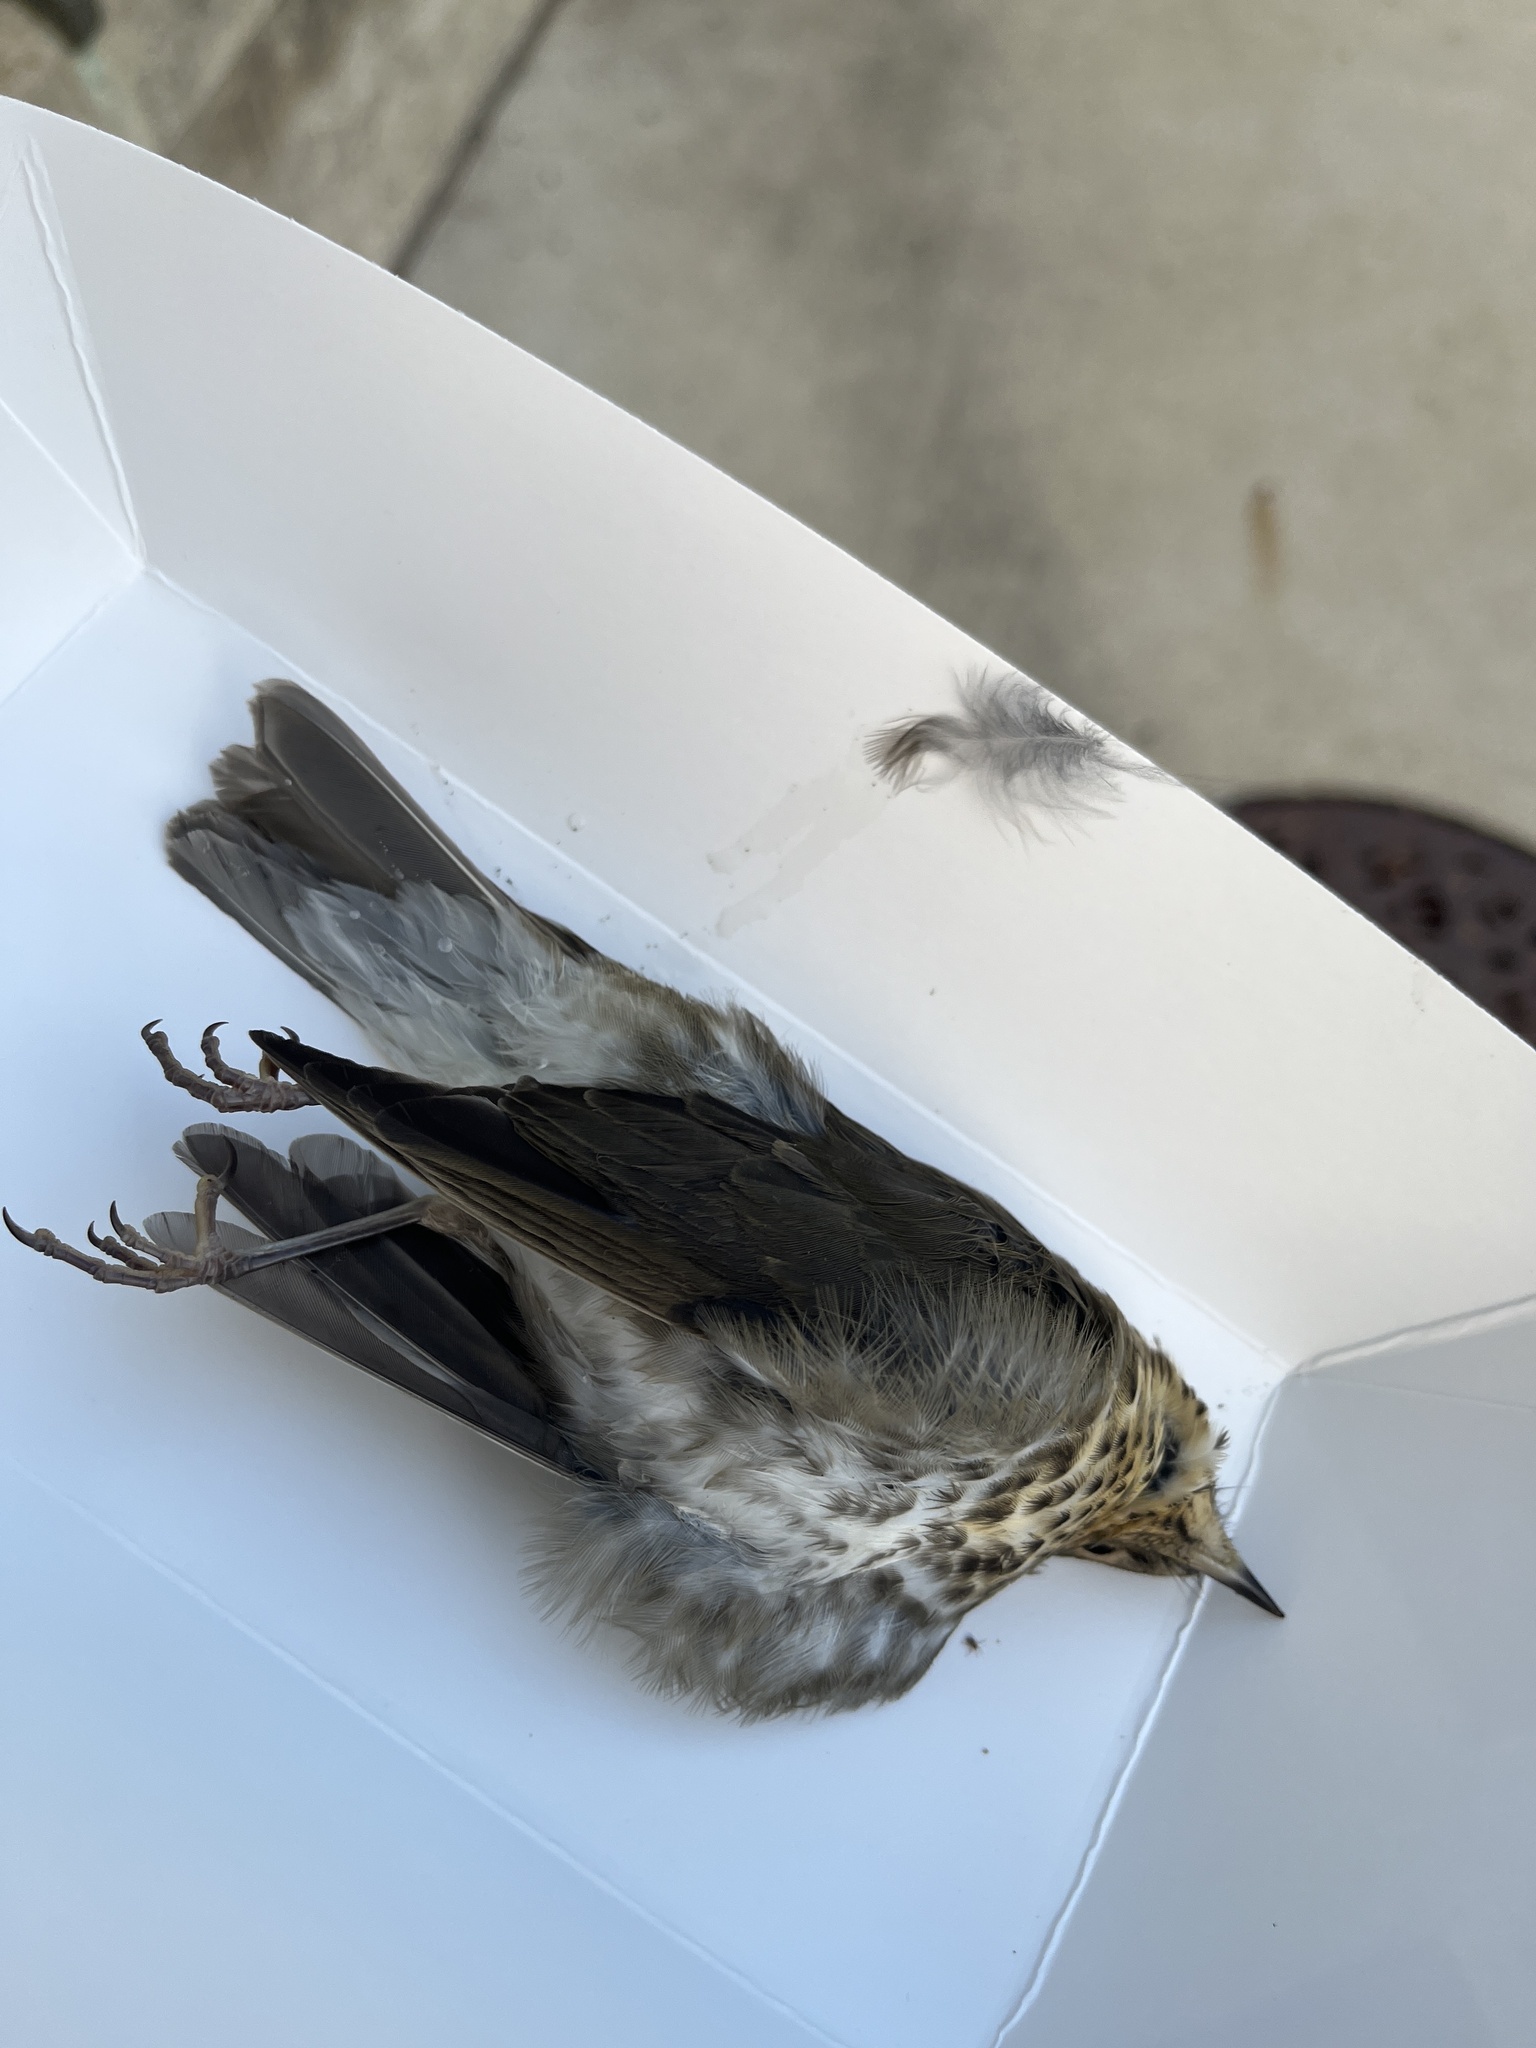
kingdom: Animalia
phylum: Chordata
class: Aves
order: Passeriformes
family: Turdidae
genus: Catharus
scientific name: Catharus ustulatus
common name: Swainson's thrush
